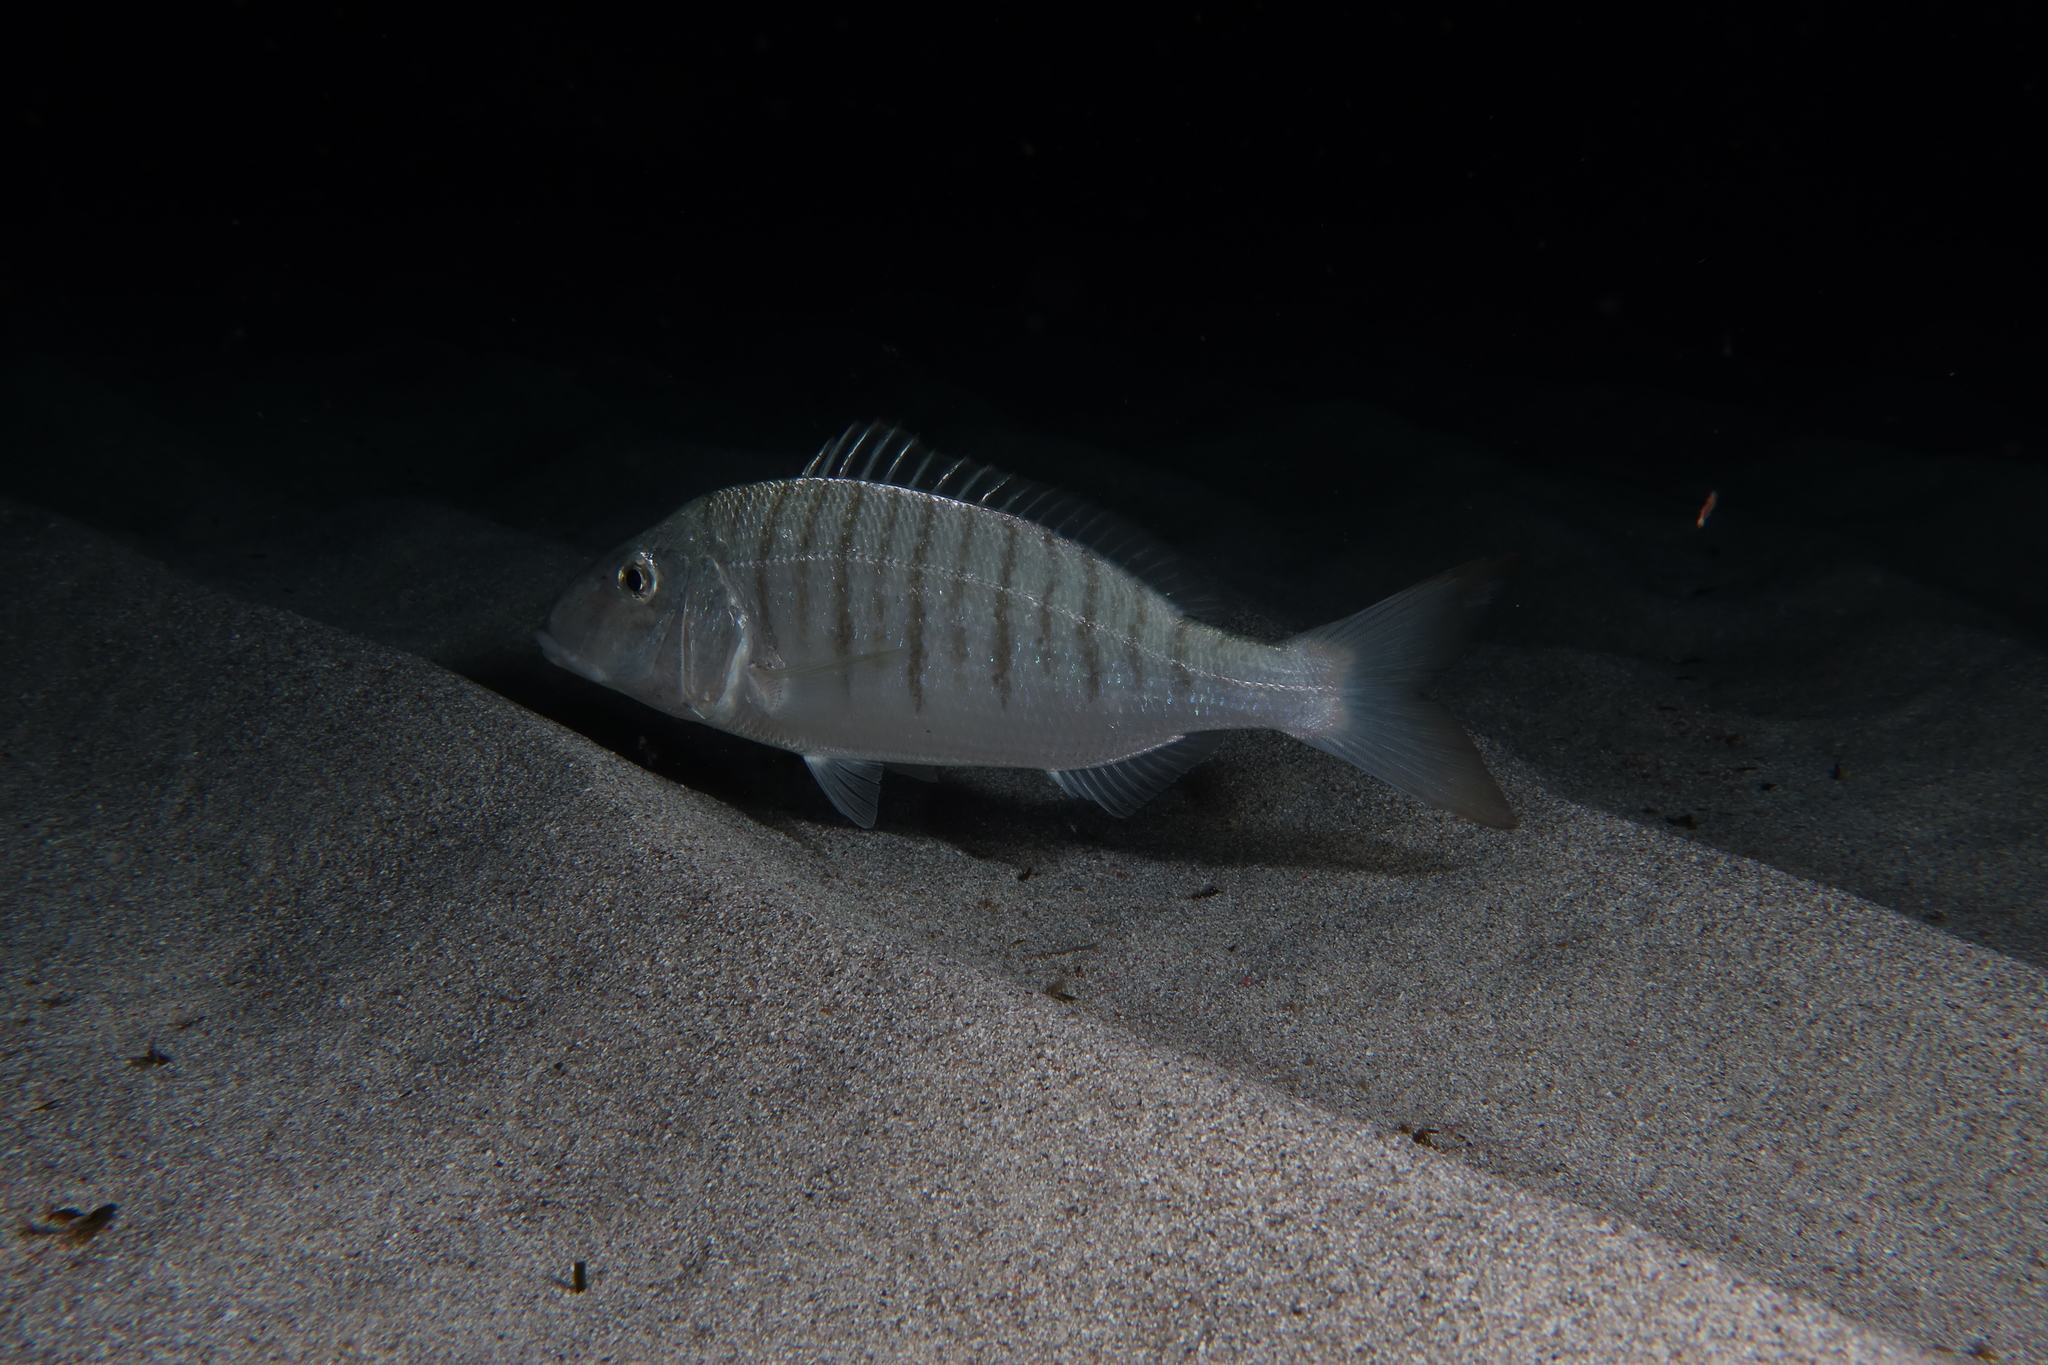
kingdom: Animalia
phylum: Chordata
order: Perciformes
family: Sparidae
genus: Lithognathus
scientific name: Lithognathus mormyrus
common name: Sand steenbras
